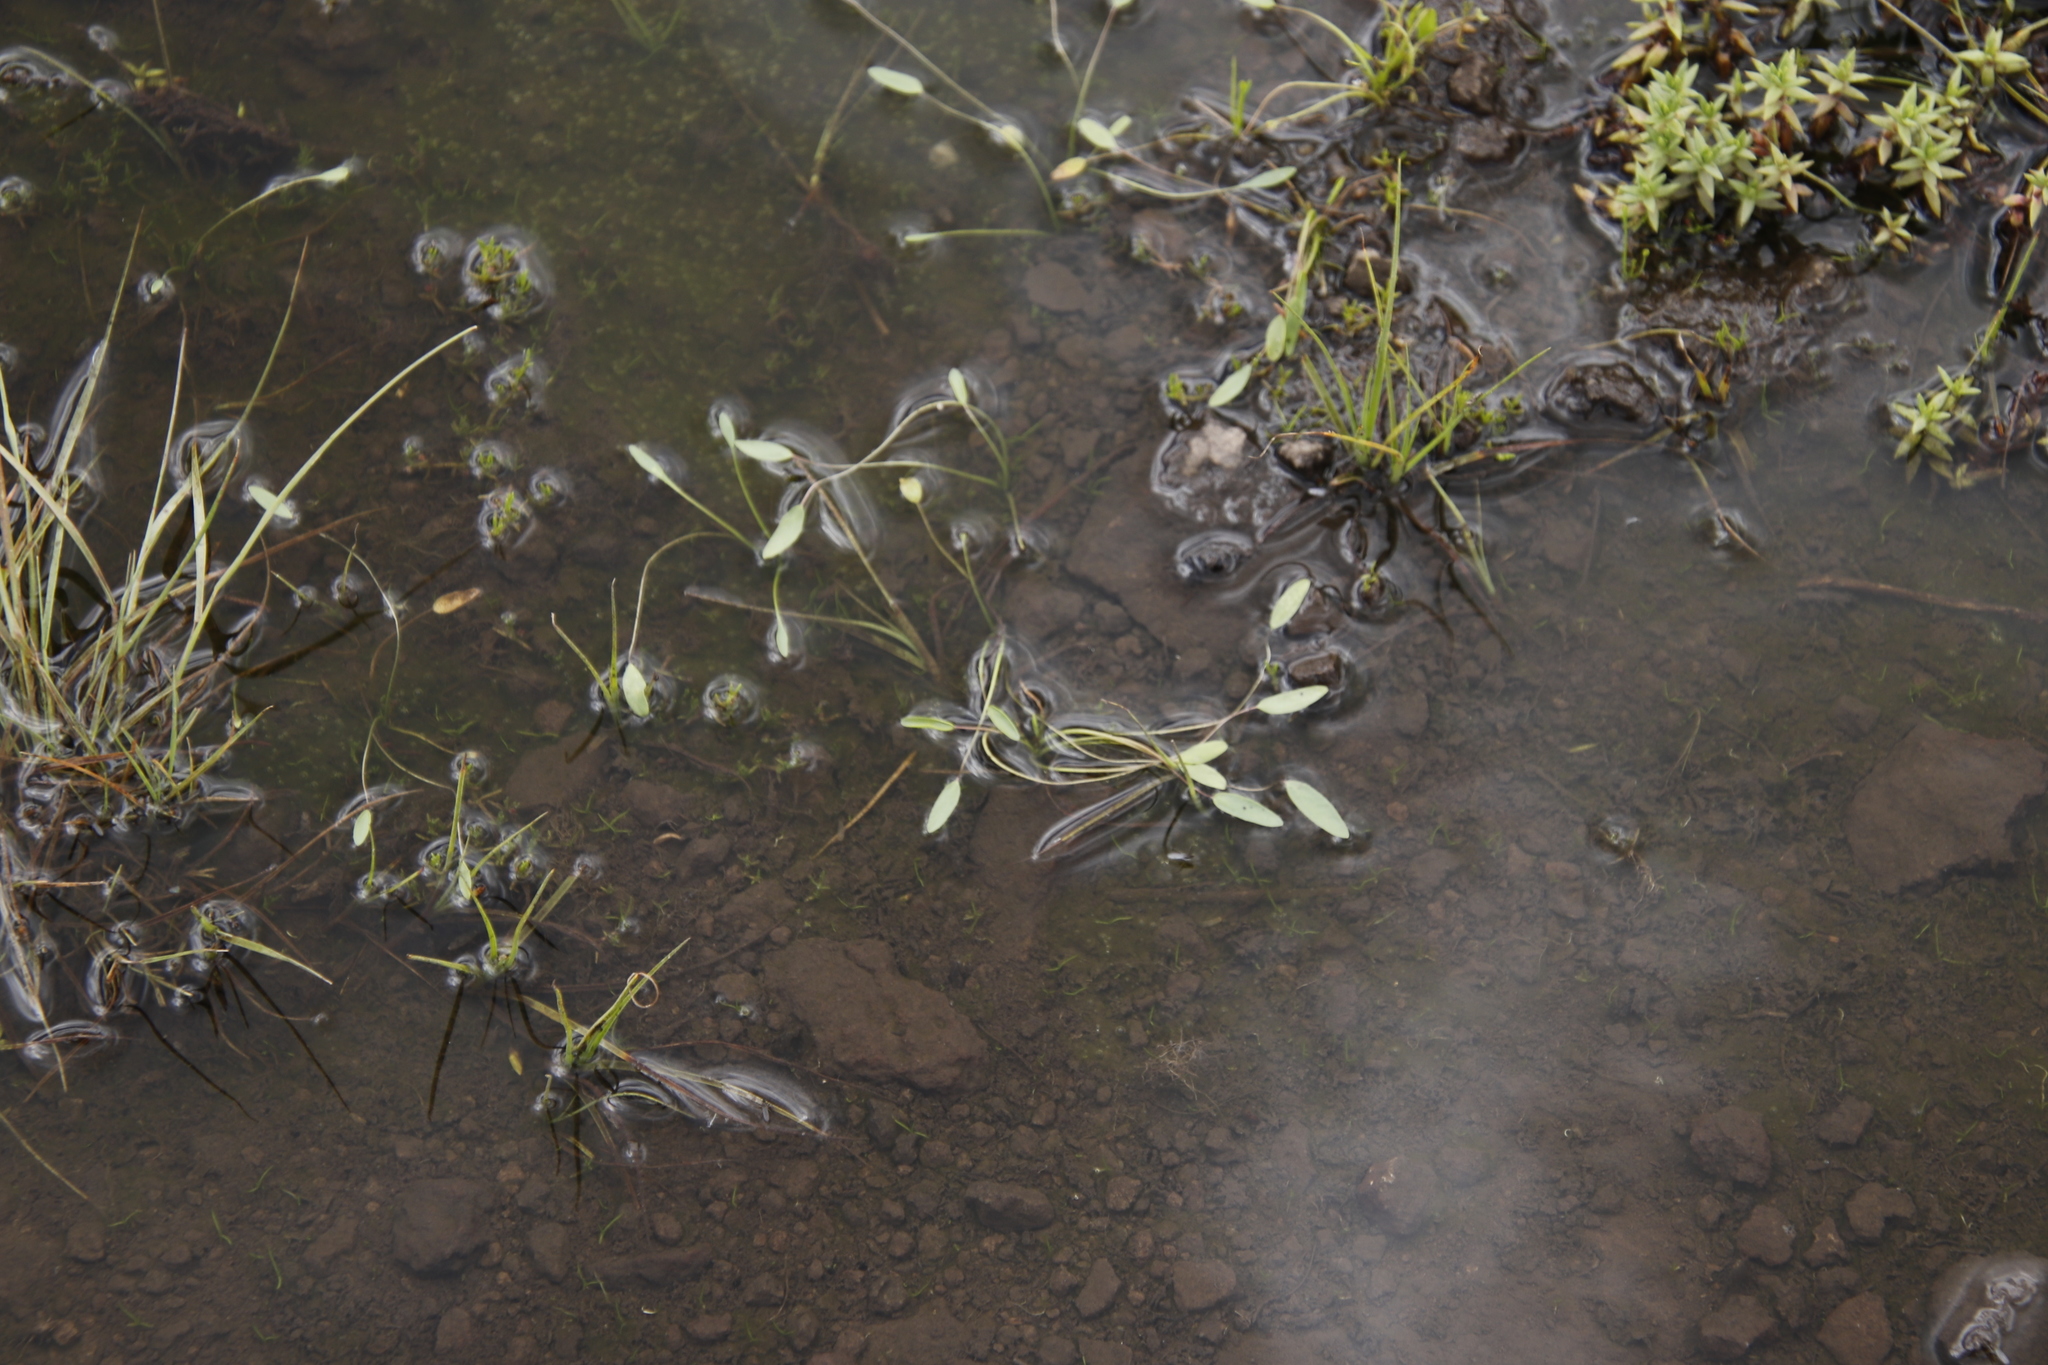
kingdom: Plantae
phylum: Tracheophyta
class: Magnoliopsida
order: Lamiales
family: Scrophulariaceae
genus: Limosella
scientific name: Limosella inflata
